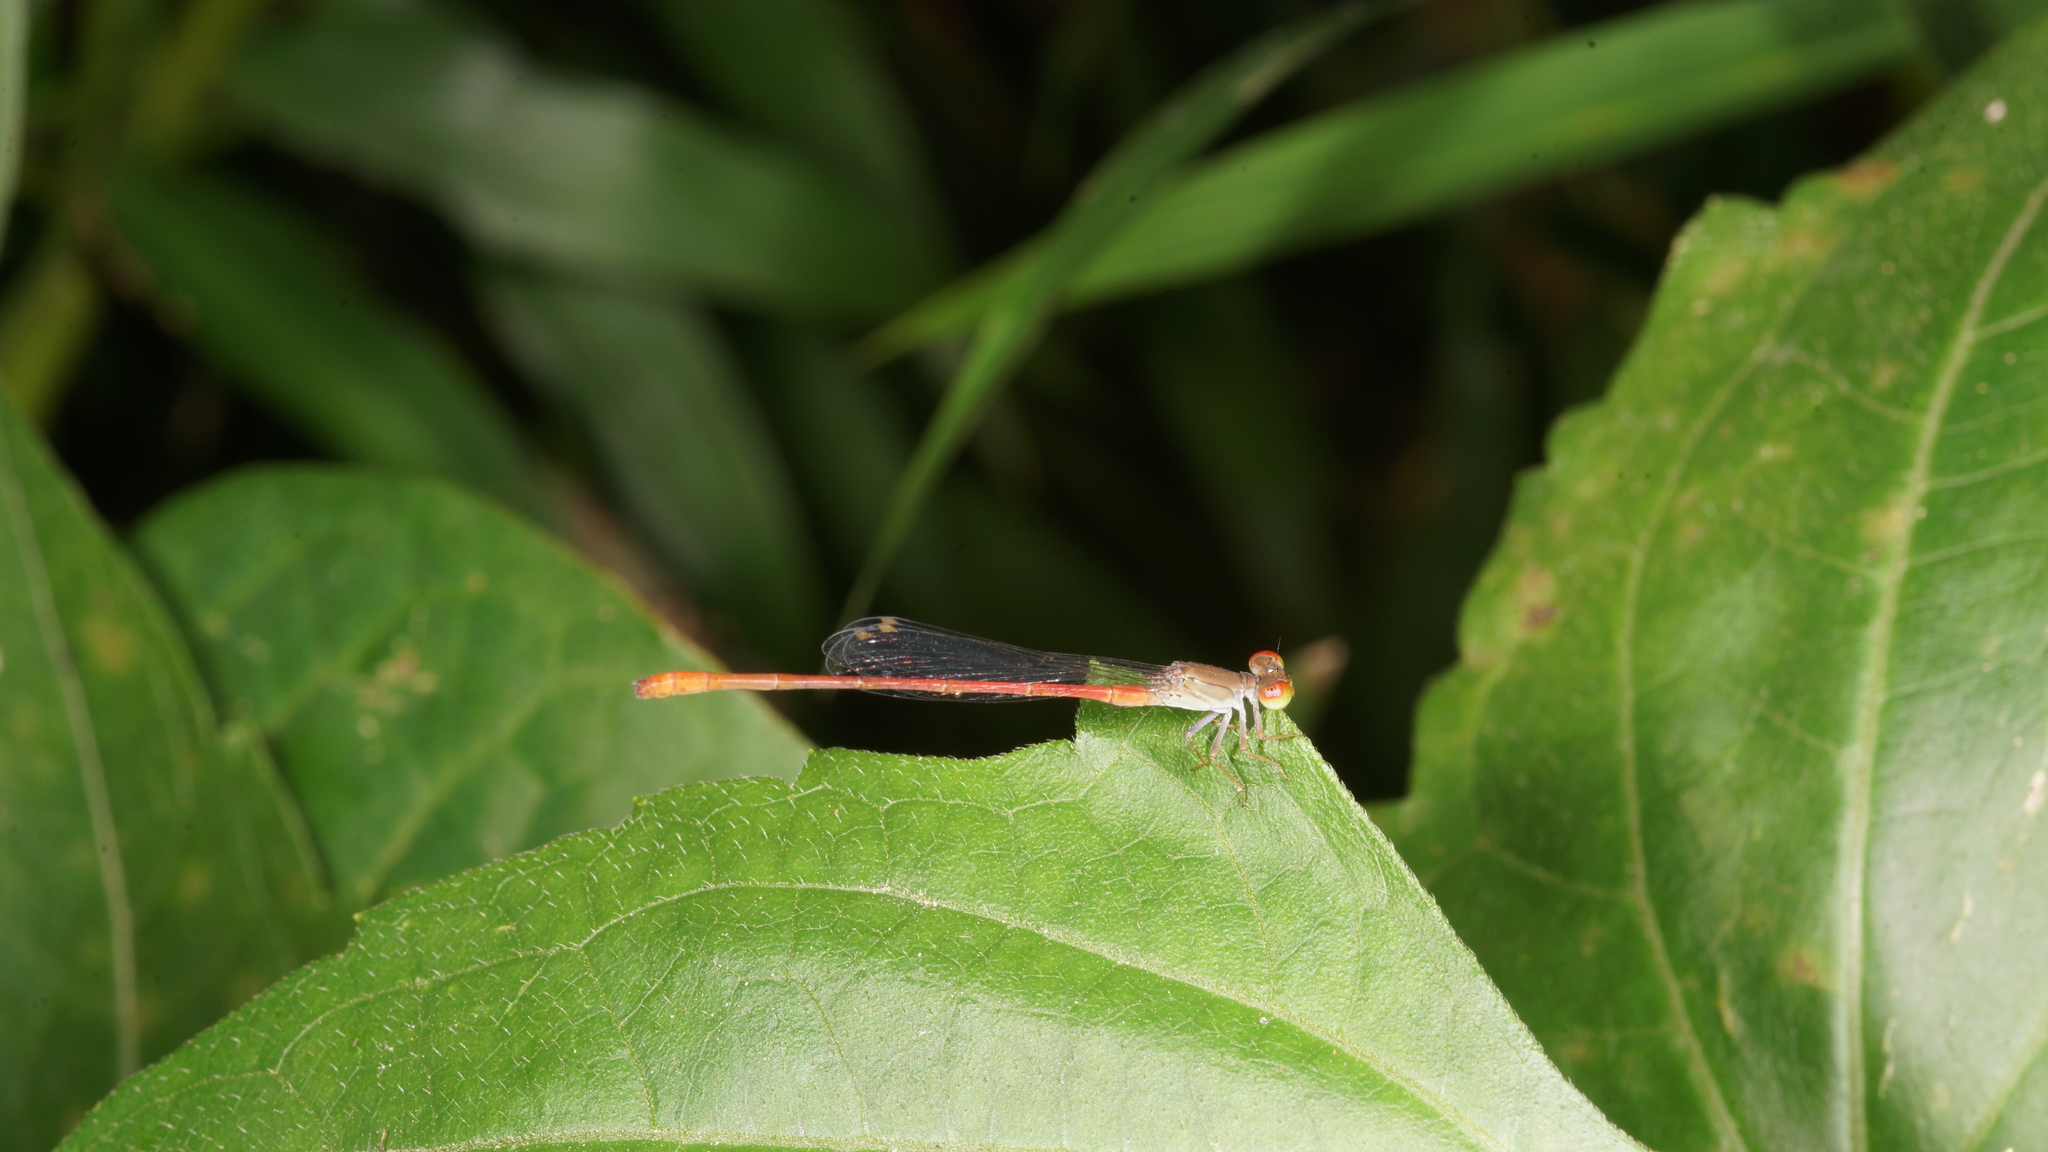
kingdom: Animalia
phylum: Arthropoda
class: Insecta
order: Odonata
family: Coenagrionidae
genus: Ceriagrion
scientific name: Ceriagrion praetermissum
